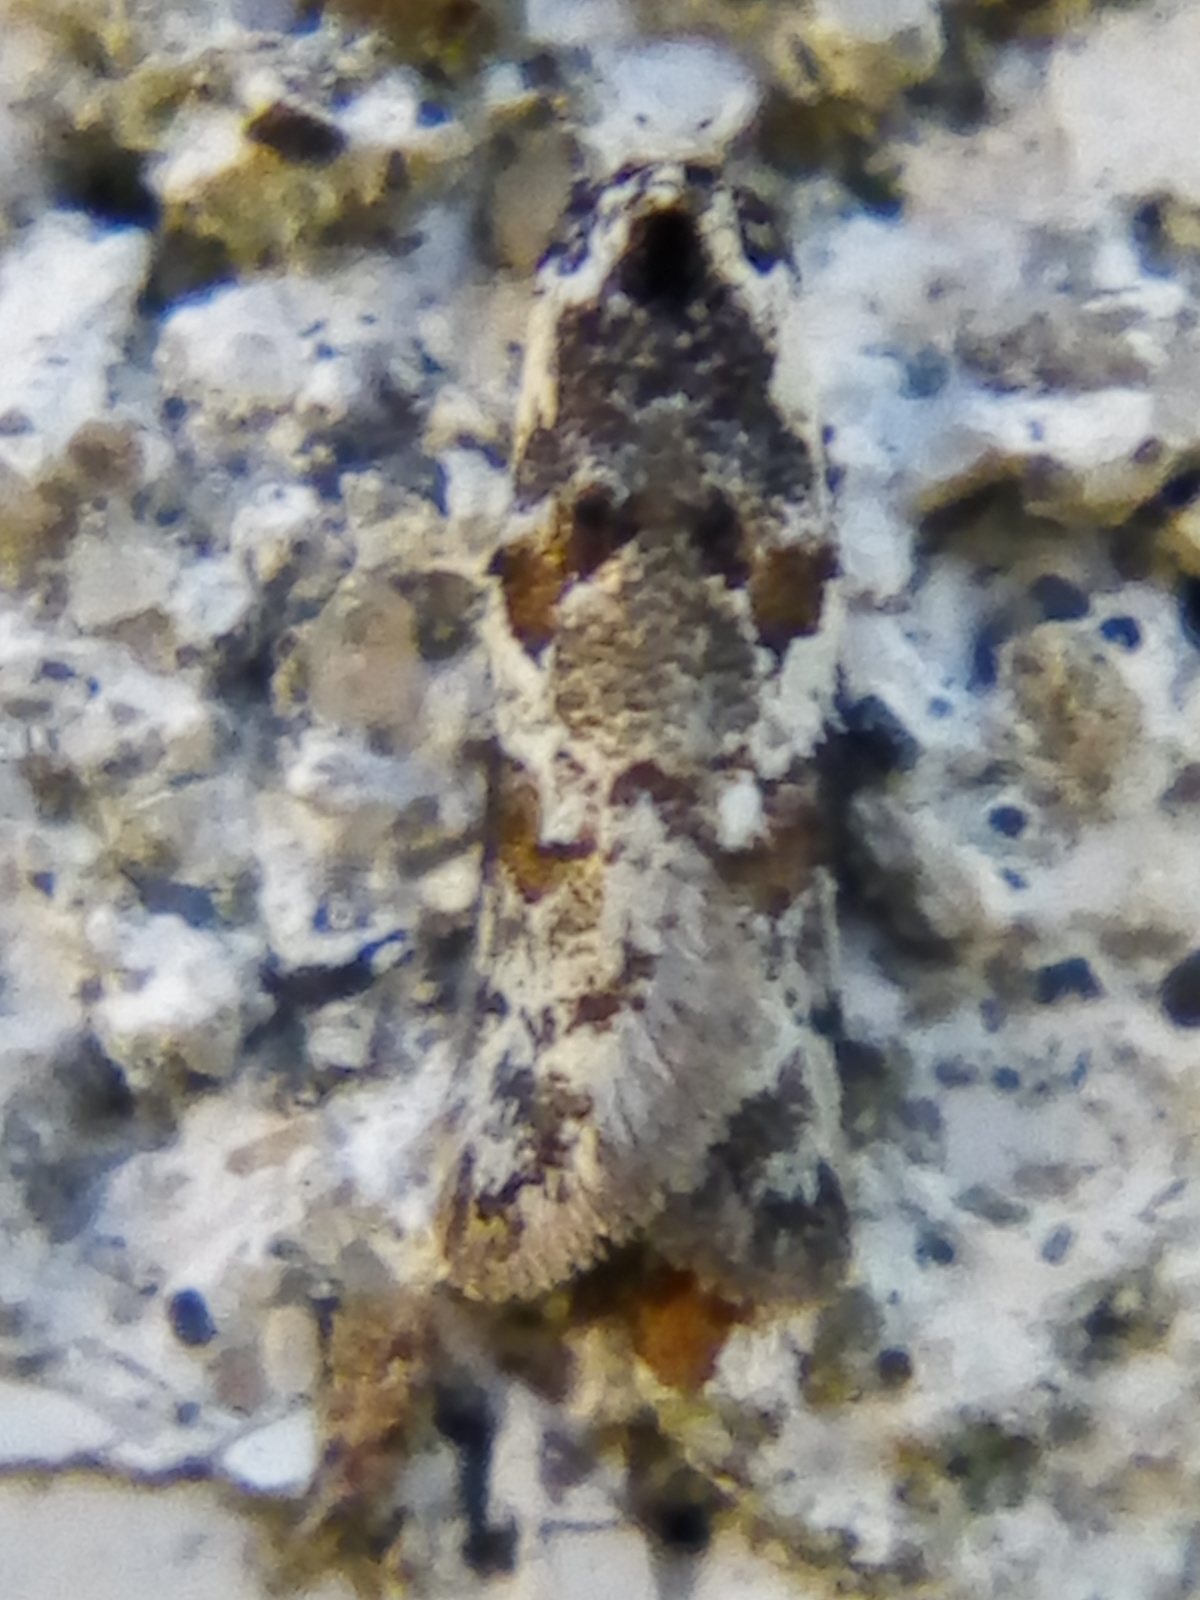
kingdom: Animalia
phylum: Arthropoda
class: Insecta
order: Lepidoptera
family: Oecophoridae
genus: Trachypepla
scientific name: Trachypepla galaxias
